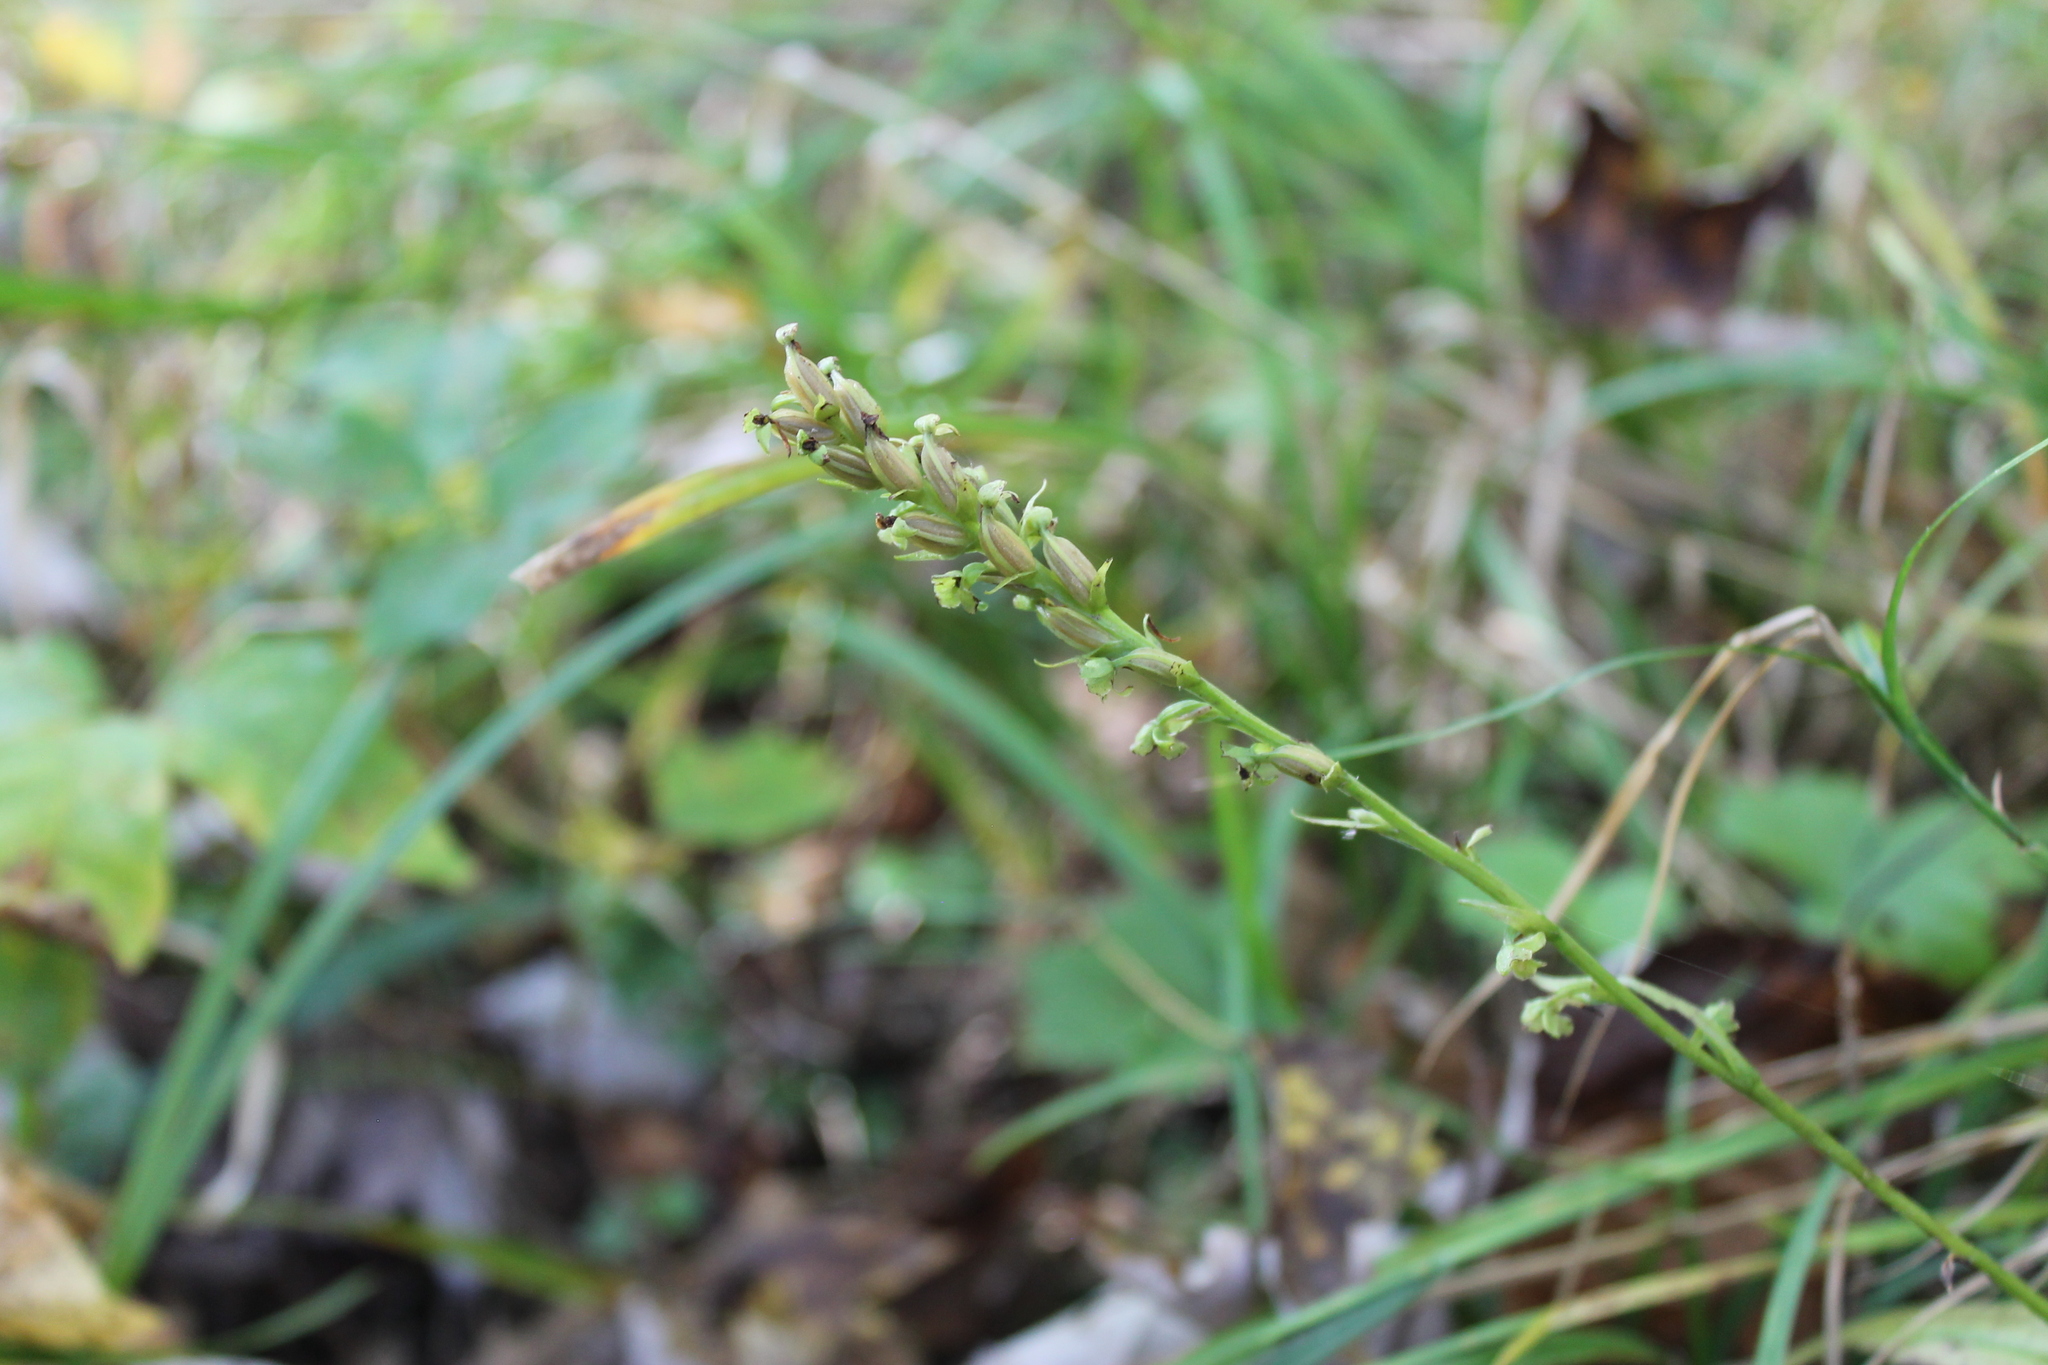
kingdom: Plantae
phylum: Tracheophyta
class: Liliopsida
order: Asparagales
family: Orchidaceae
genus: Platanthera
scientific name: Platanthera flava
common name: Gypsy-spikes
